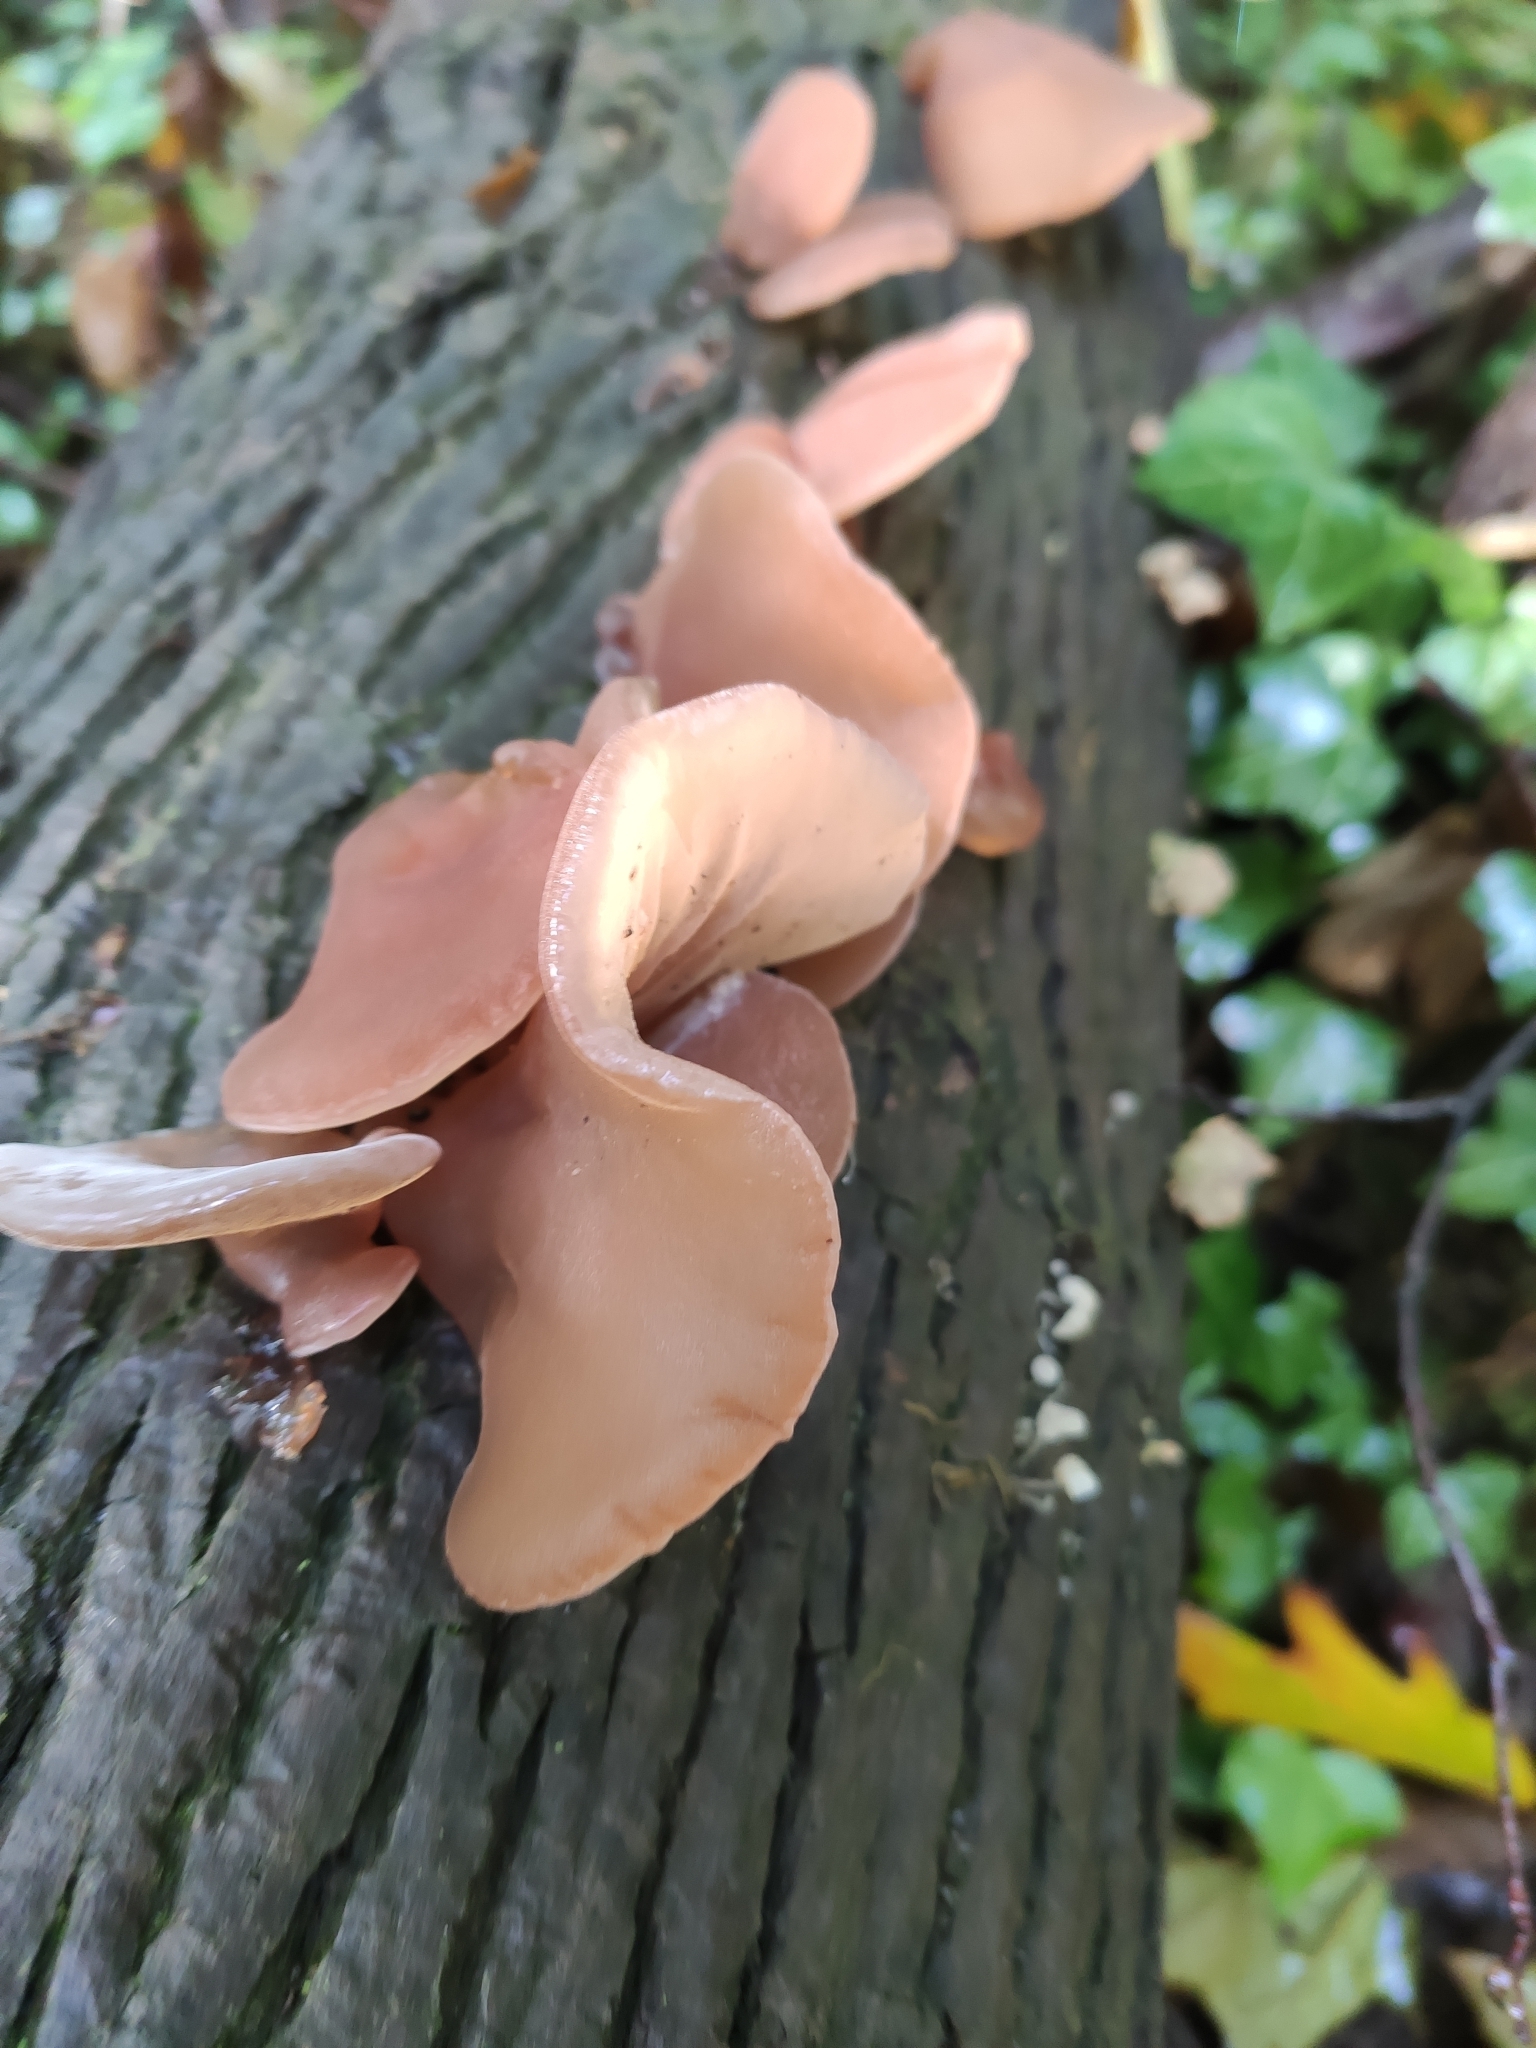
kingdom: Fungi
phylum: Basidiomycota
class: Agaricomycetes
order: Auriculariales
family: Auriculariaceae
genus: Auricularia
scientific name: Auricularia auricula-judae
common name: Jelly ear
